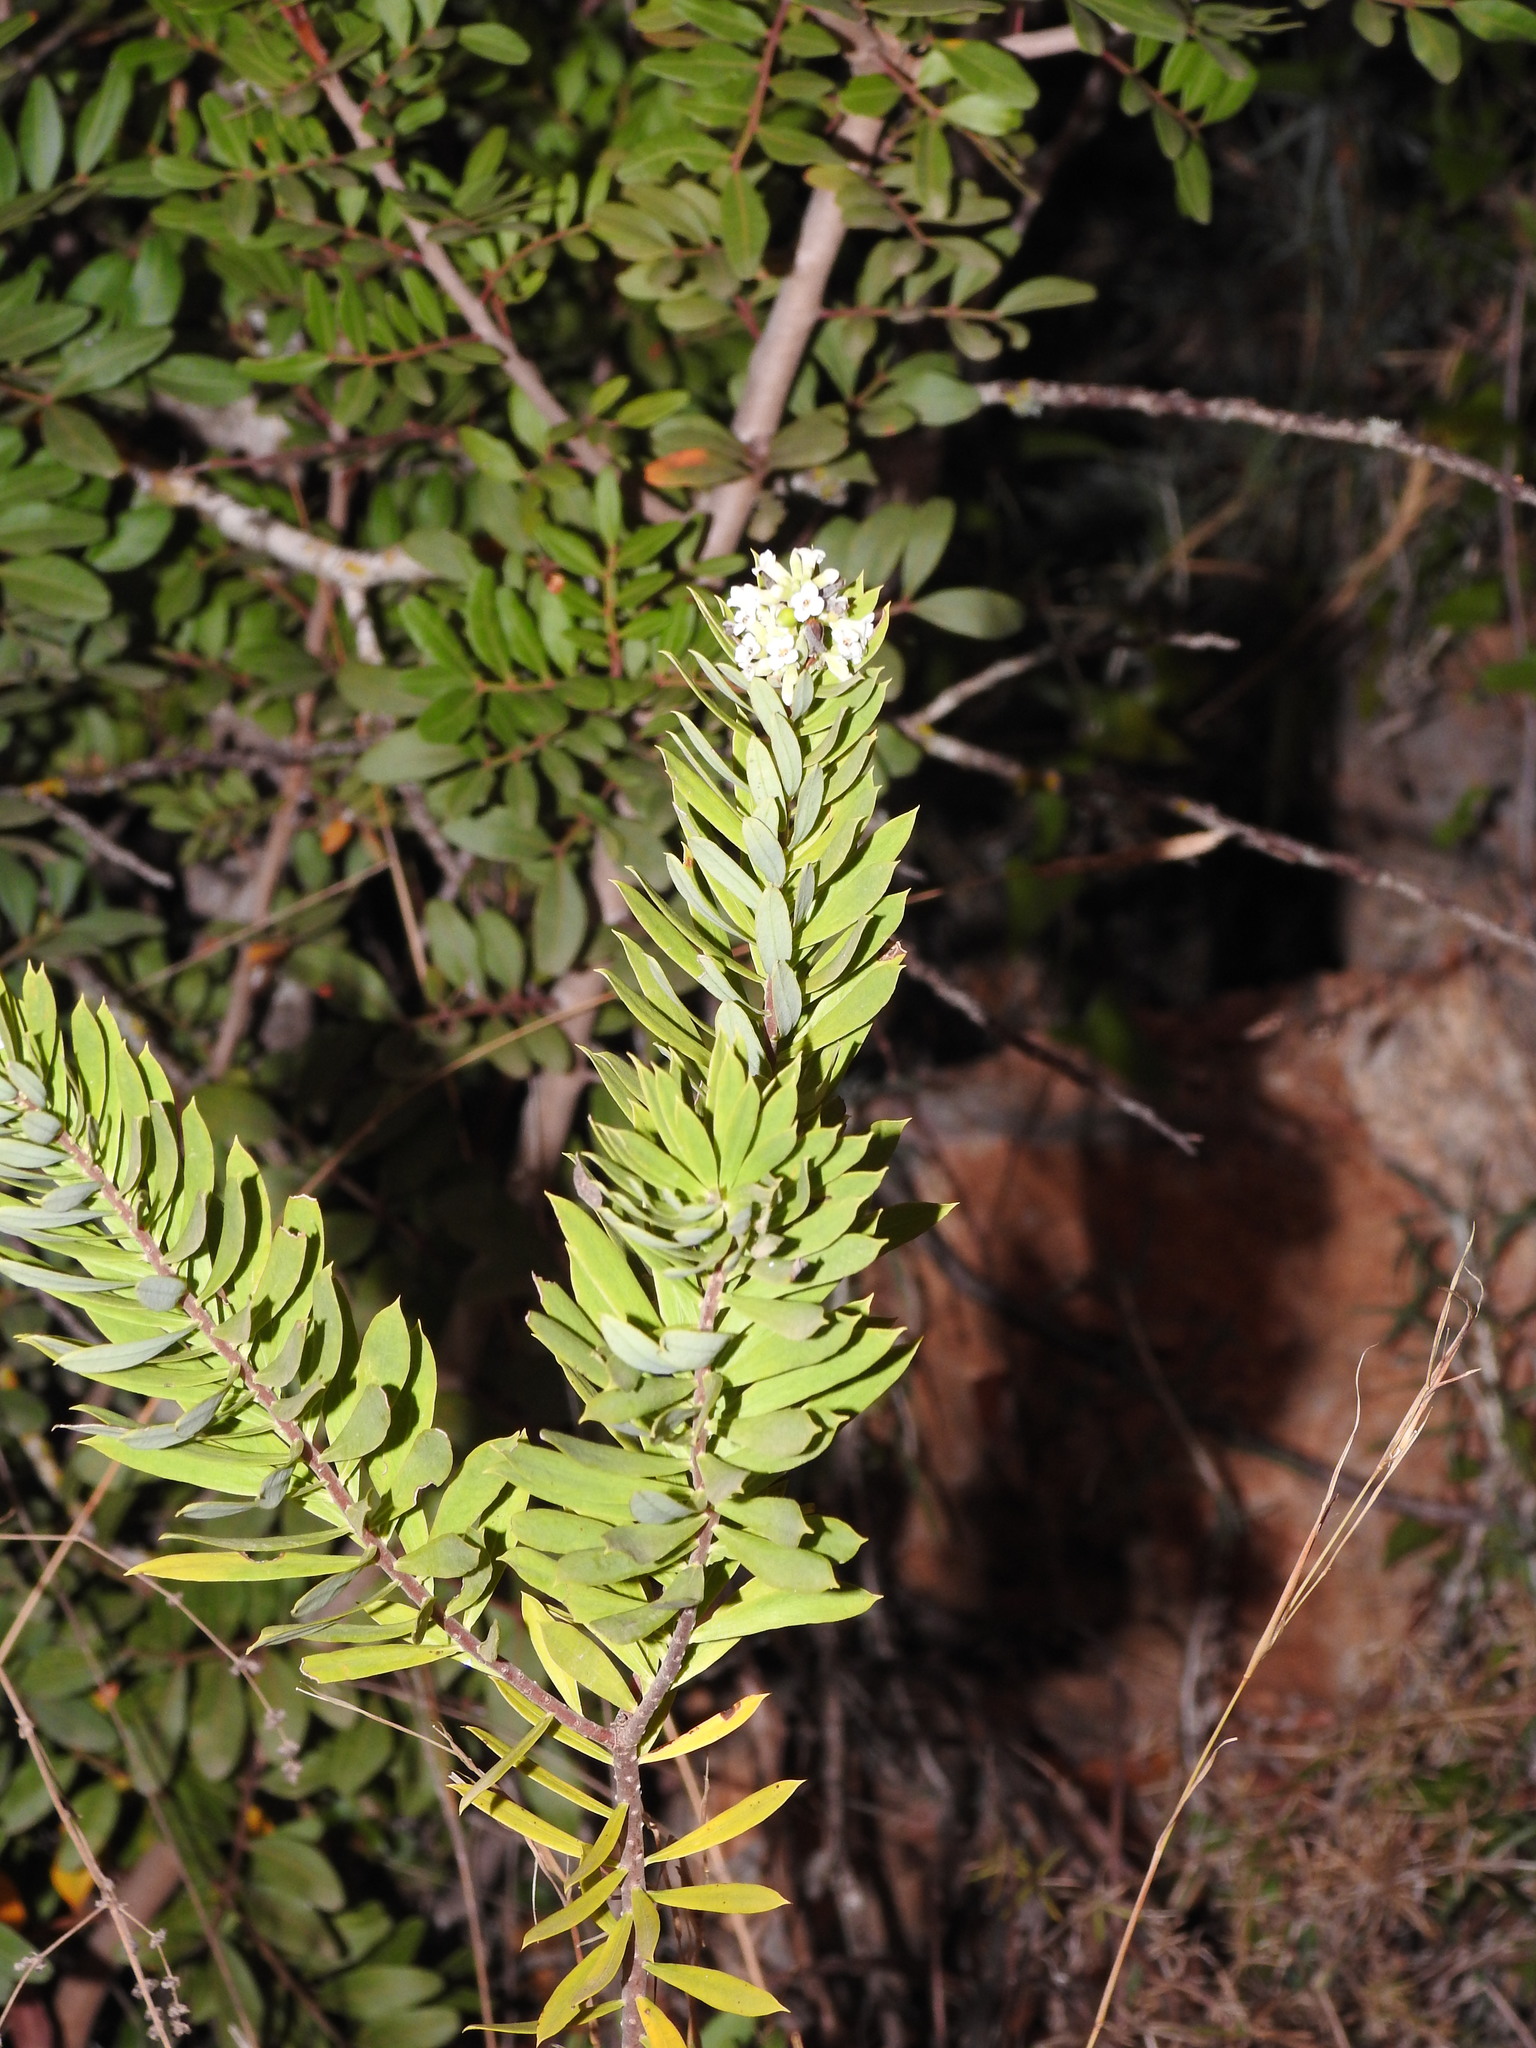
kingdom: Plantae
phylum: Tracheophyta
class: Magnoliopsida
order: Malvales
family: Thymelaeaceae
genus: Daphne
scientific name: Daphne gnidium
